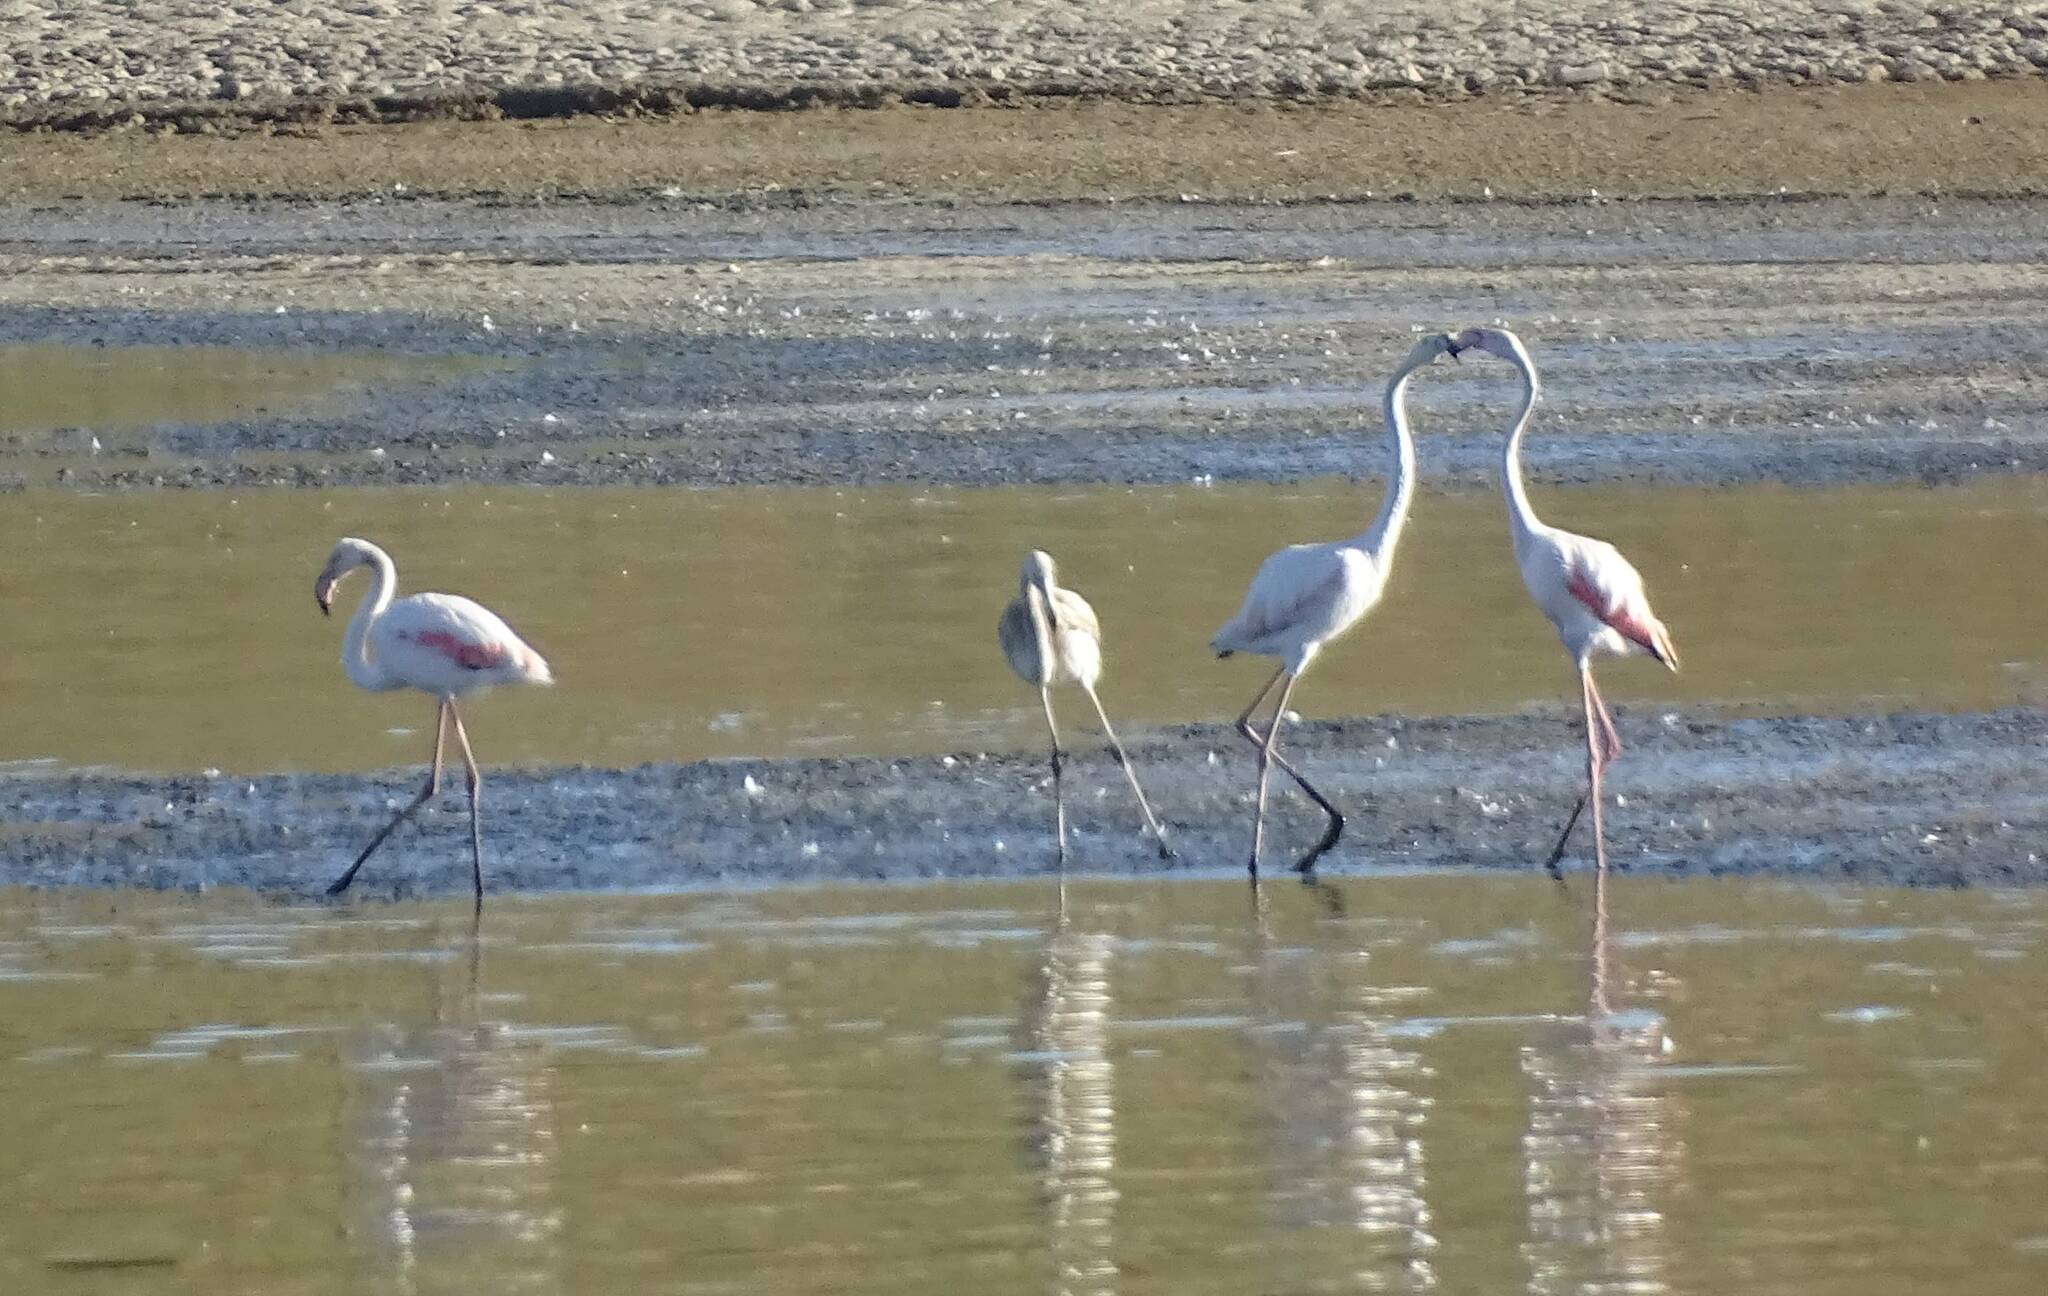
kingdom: Animalia
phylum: Chordata
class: Aves
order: Phoenicopteriformes
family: Phoenicopteridae
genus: Phoenicopterus
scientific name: Phoenicopterus roseus
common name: Greater flamingo
